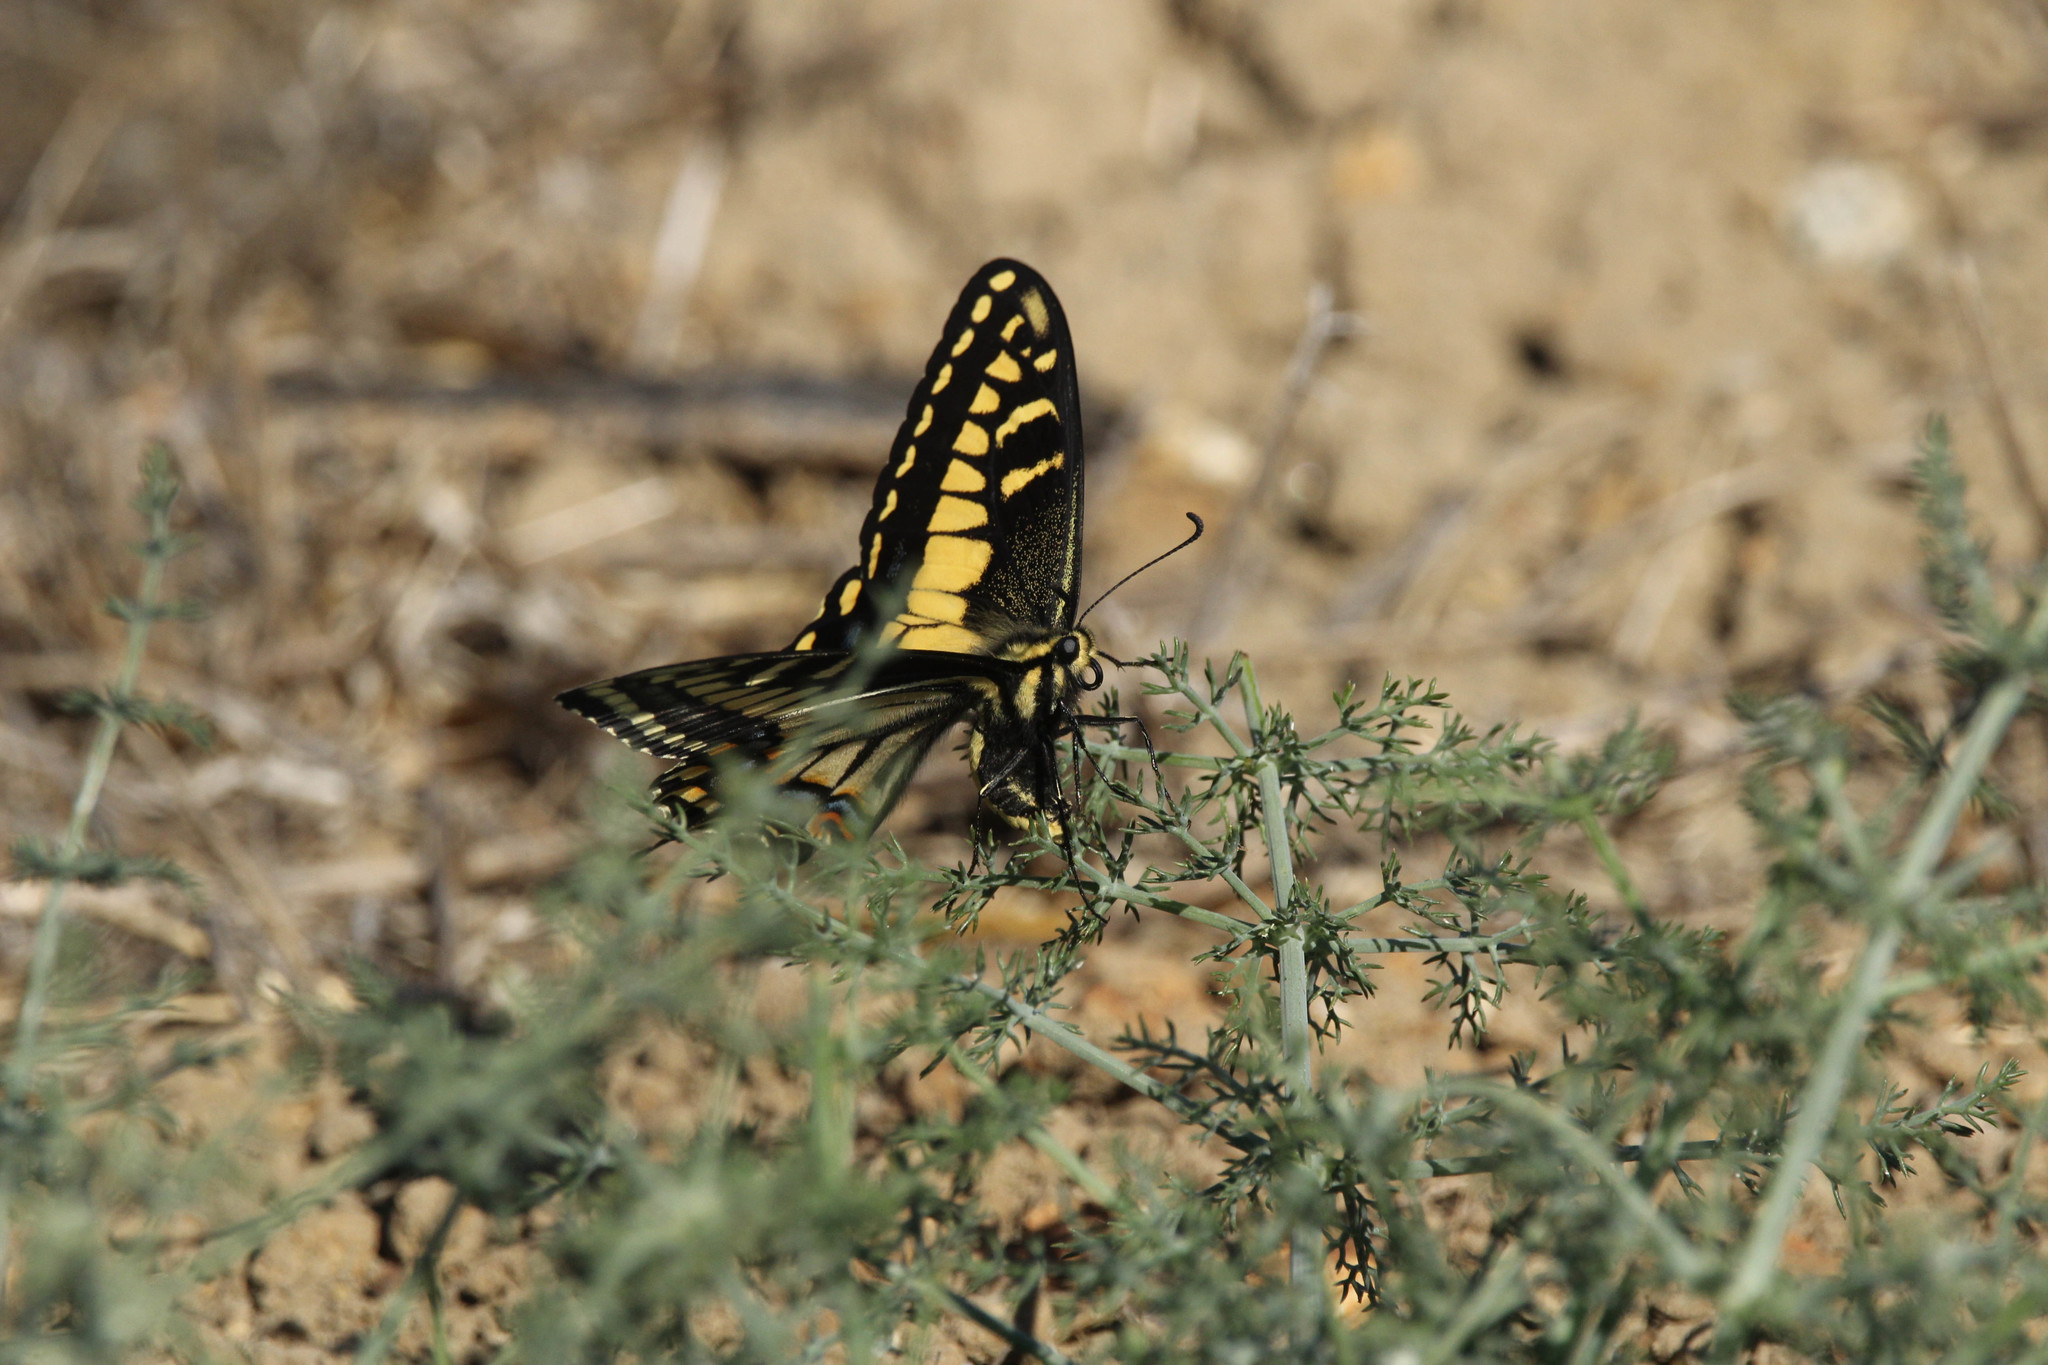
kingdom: Animalia
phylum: Arthropoda
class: Insecta
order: Lepidoptera
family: Papilionidae
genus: Papilio
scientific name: Papilio zelicaon
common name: Anise swallowtail
